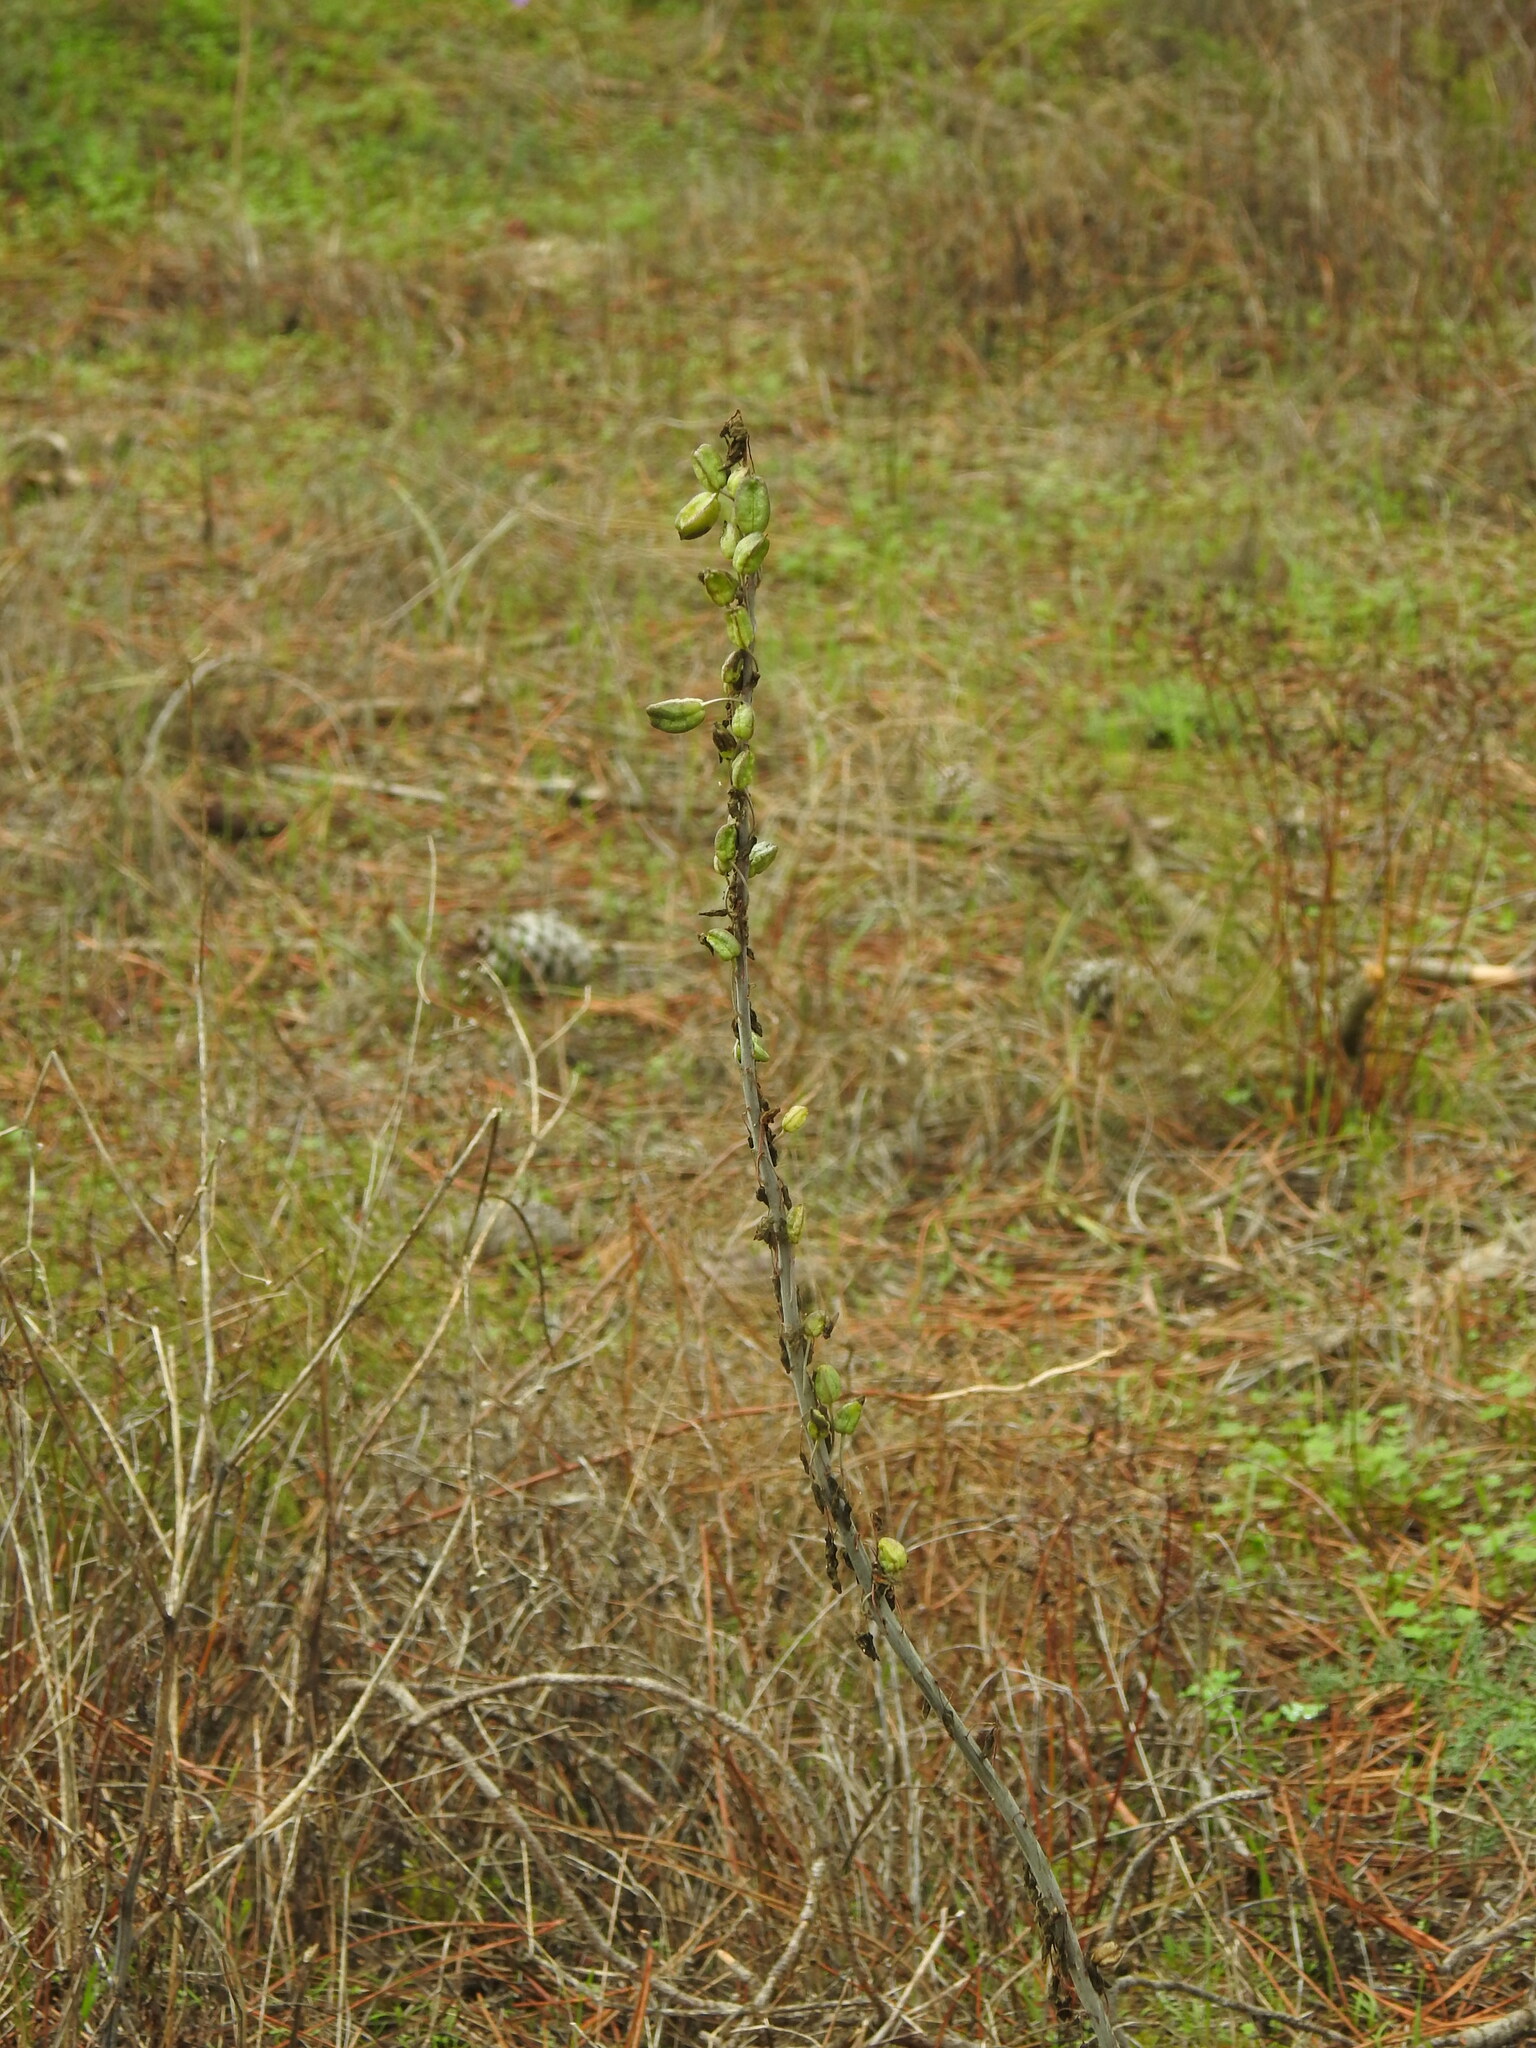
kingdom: Plantae
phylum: Tracheophyta
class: Liliopsida
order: Asparagales
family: Asparagaceae
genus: Drimia
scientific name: Drimia maritima
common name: Maritime squill
